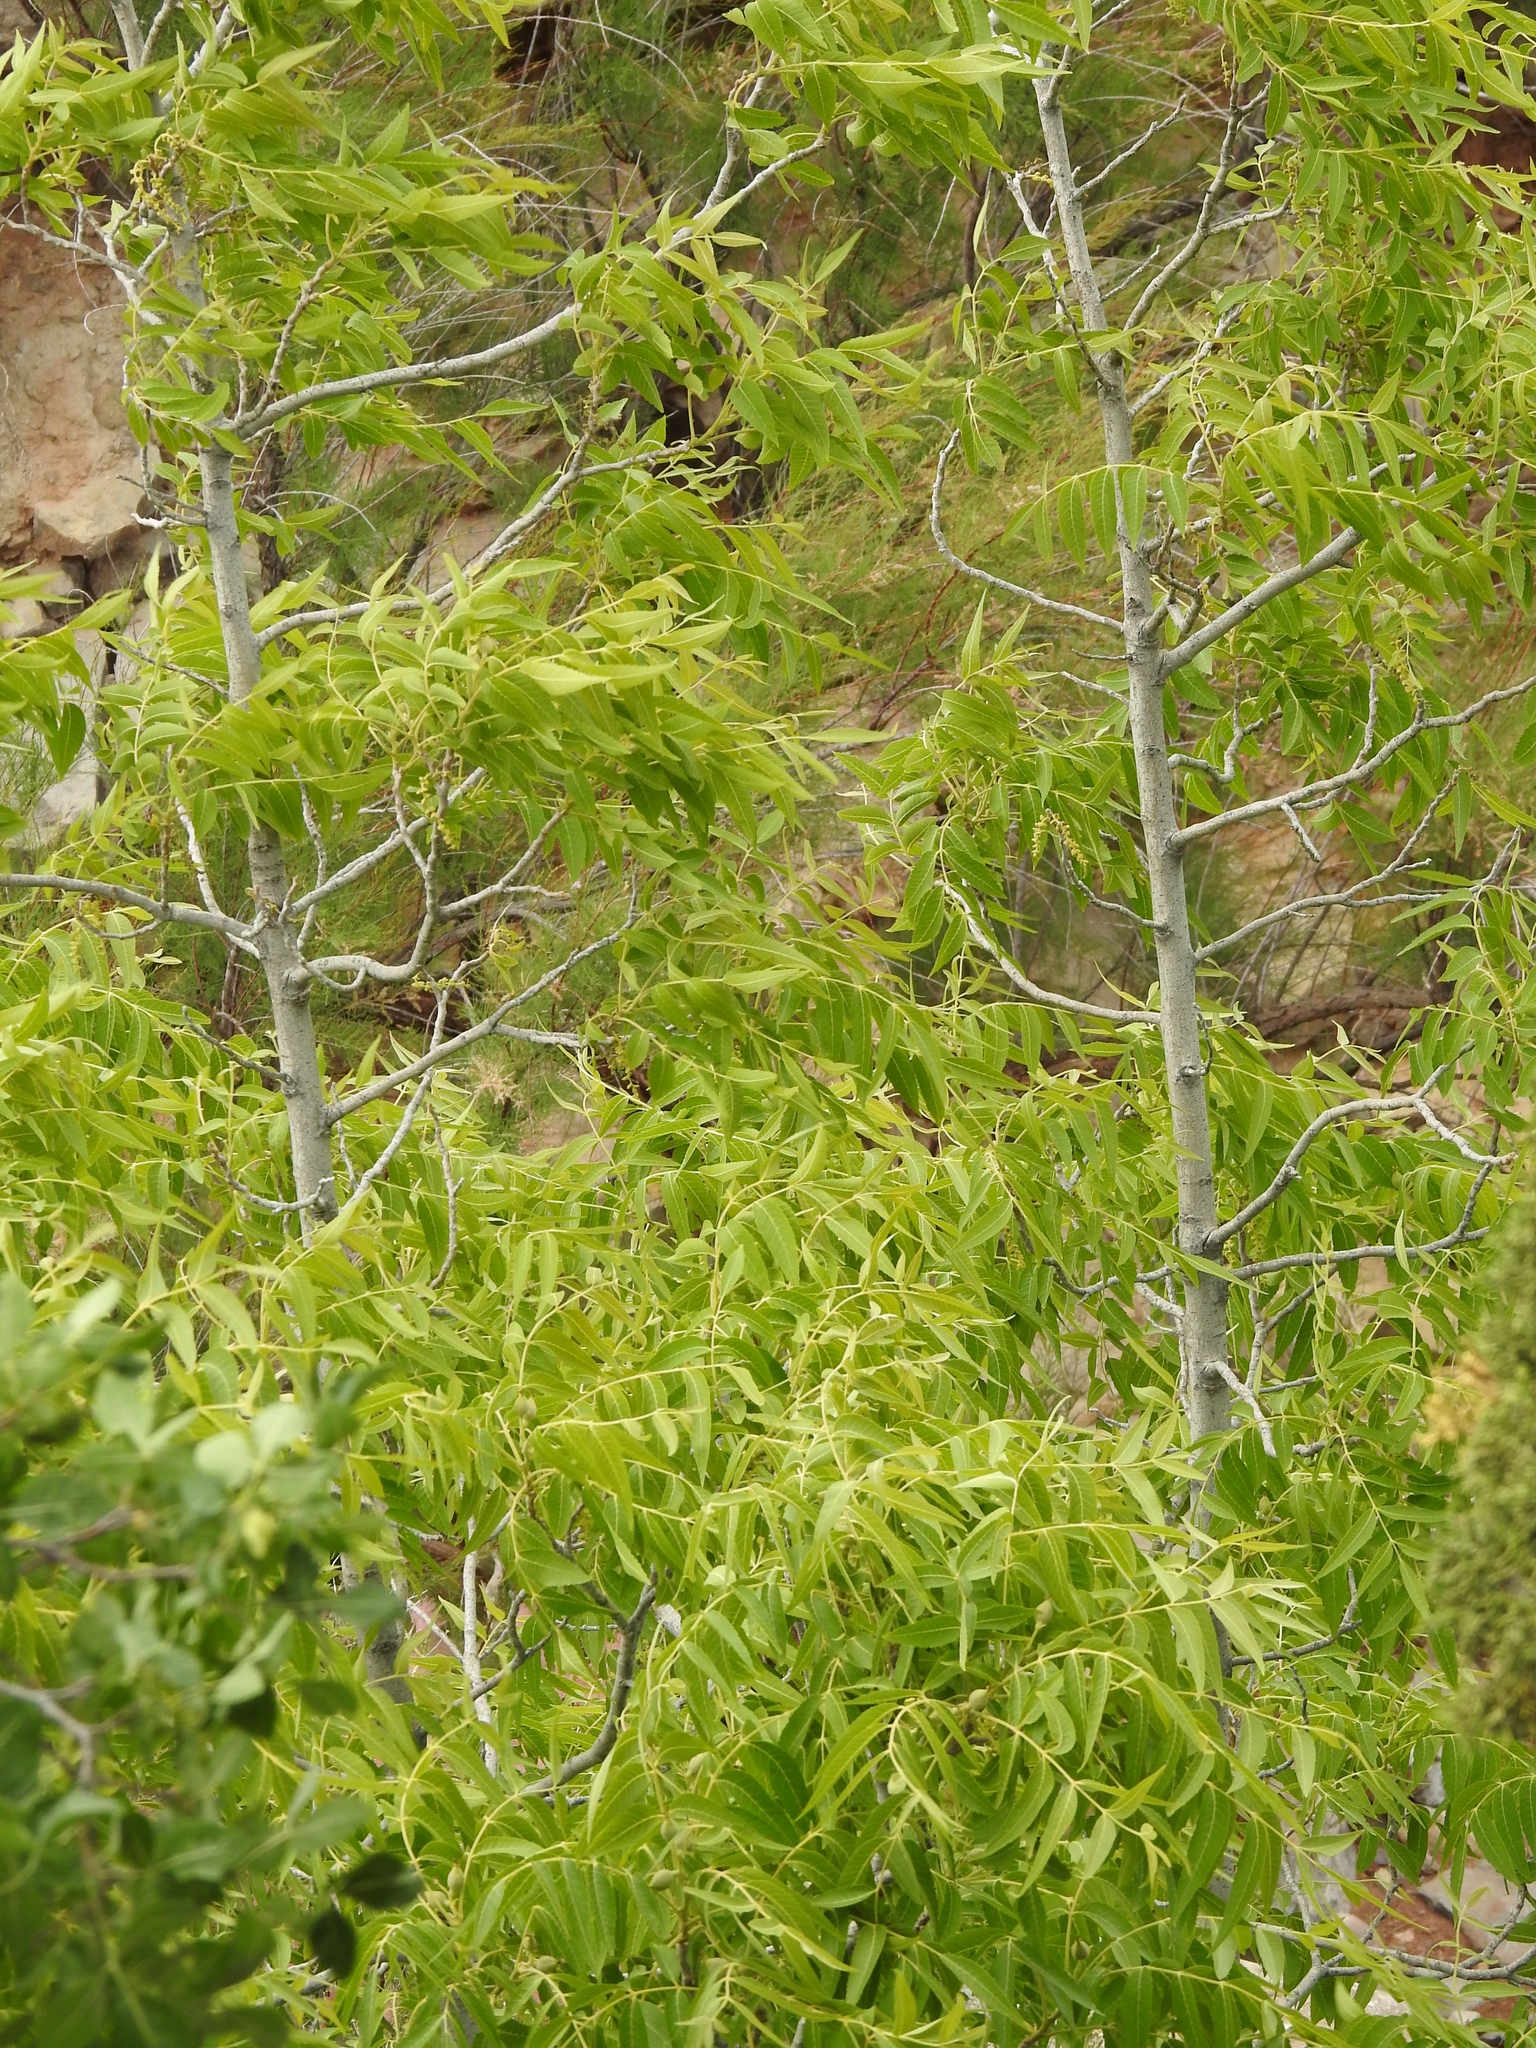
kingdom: Plantae
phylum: Tracheophyta
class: Magnoliopsida
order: Fagales
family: Juglandaceae
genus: Juglans
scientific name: Juglans major
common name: Arizona walnut
